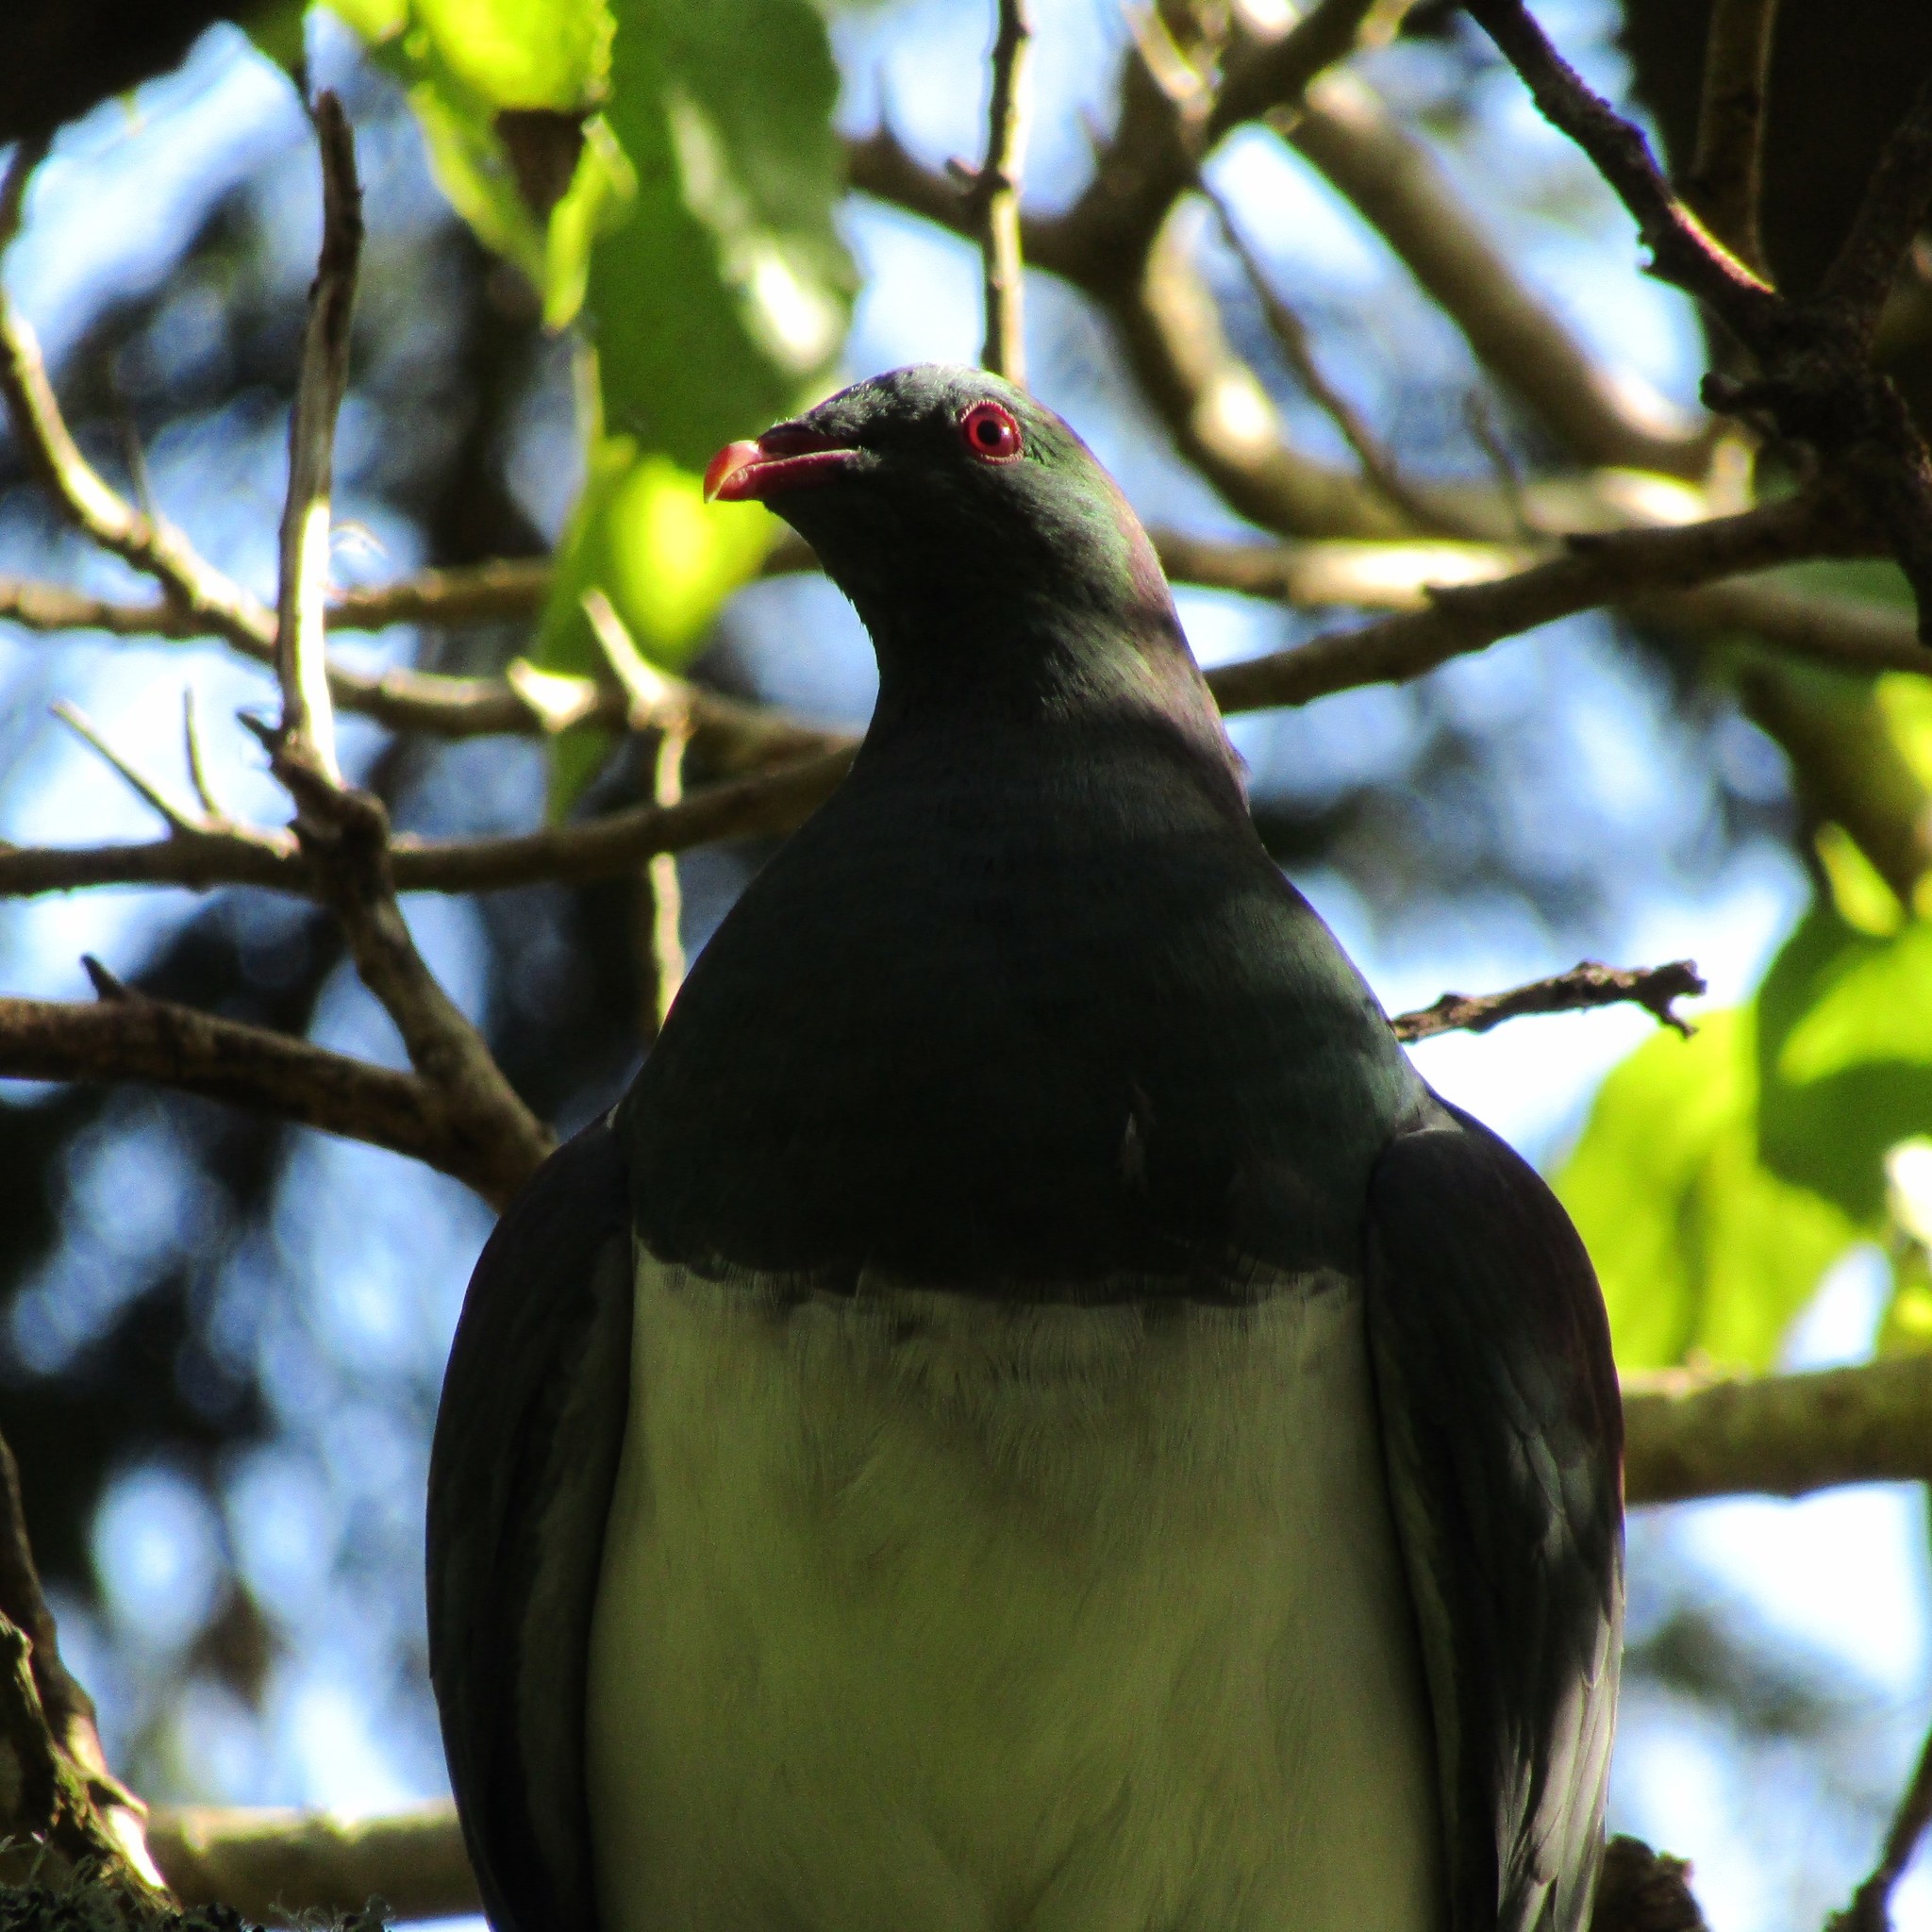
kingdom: Animalia
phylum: Chordata
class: Aves
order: Columbiformes
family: Columbidae
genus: Hemiphaga
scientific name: Hemiphaga novaeseelandiae
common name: New zealand pigeon
